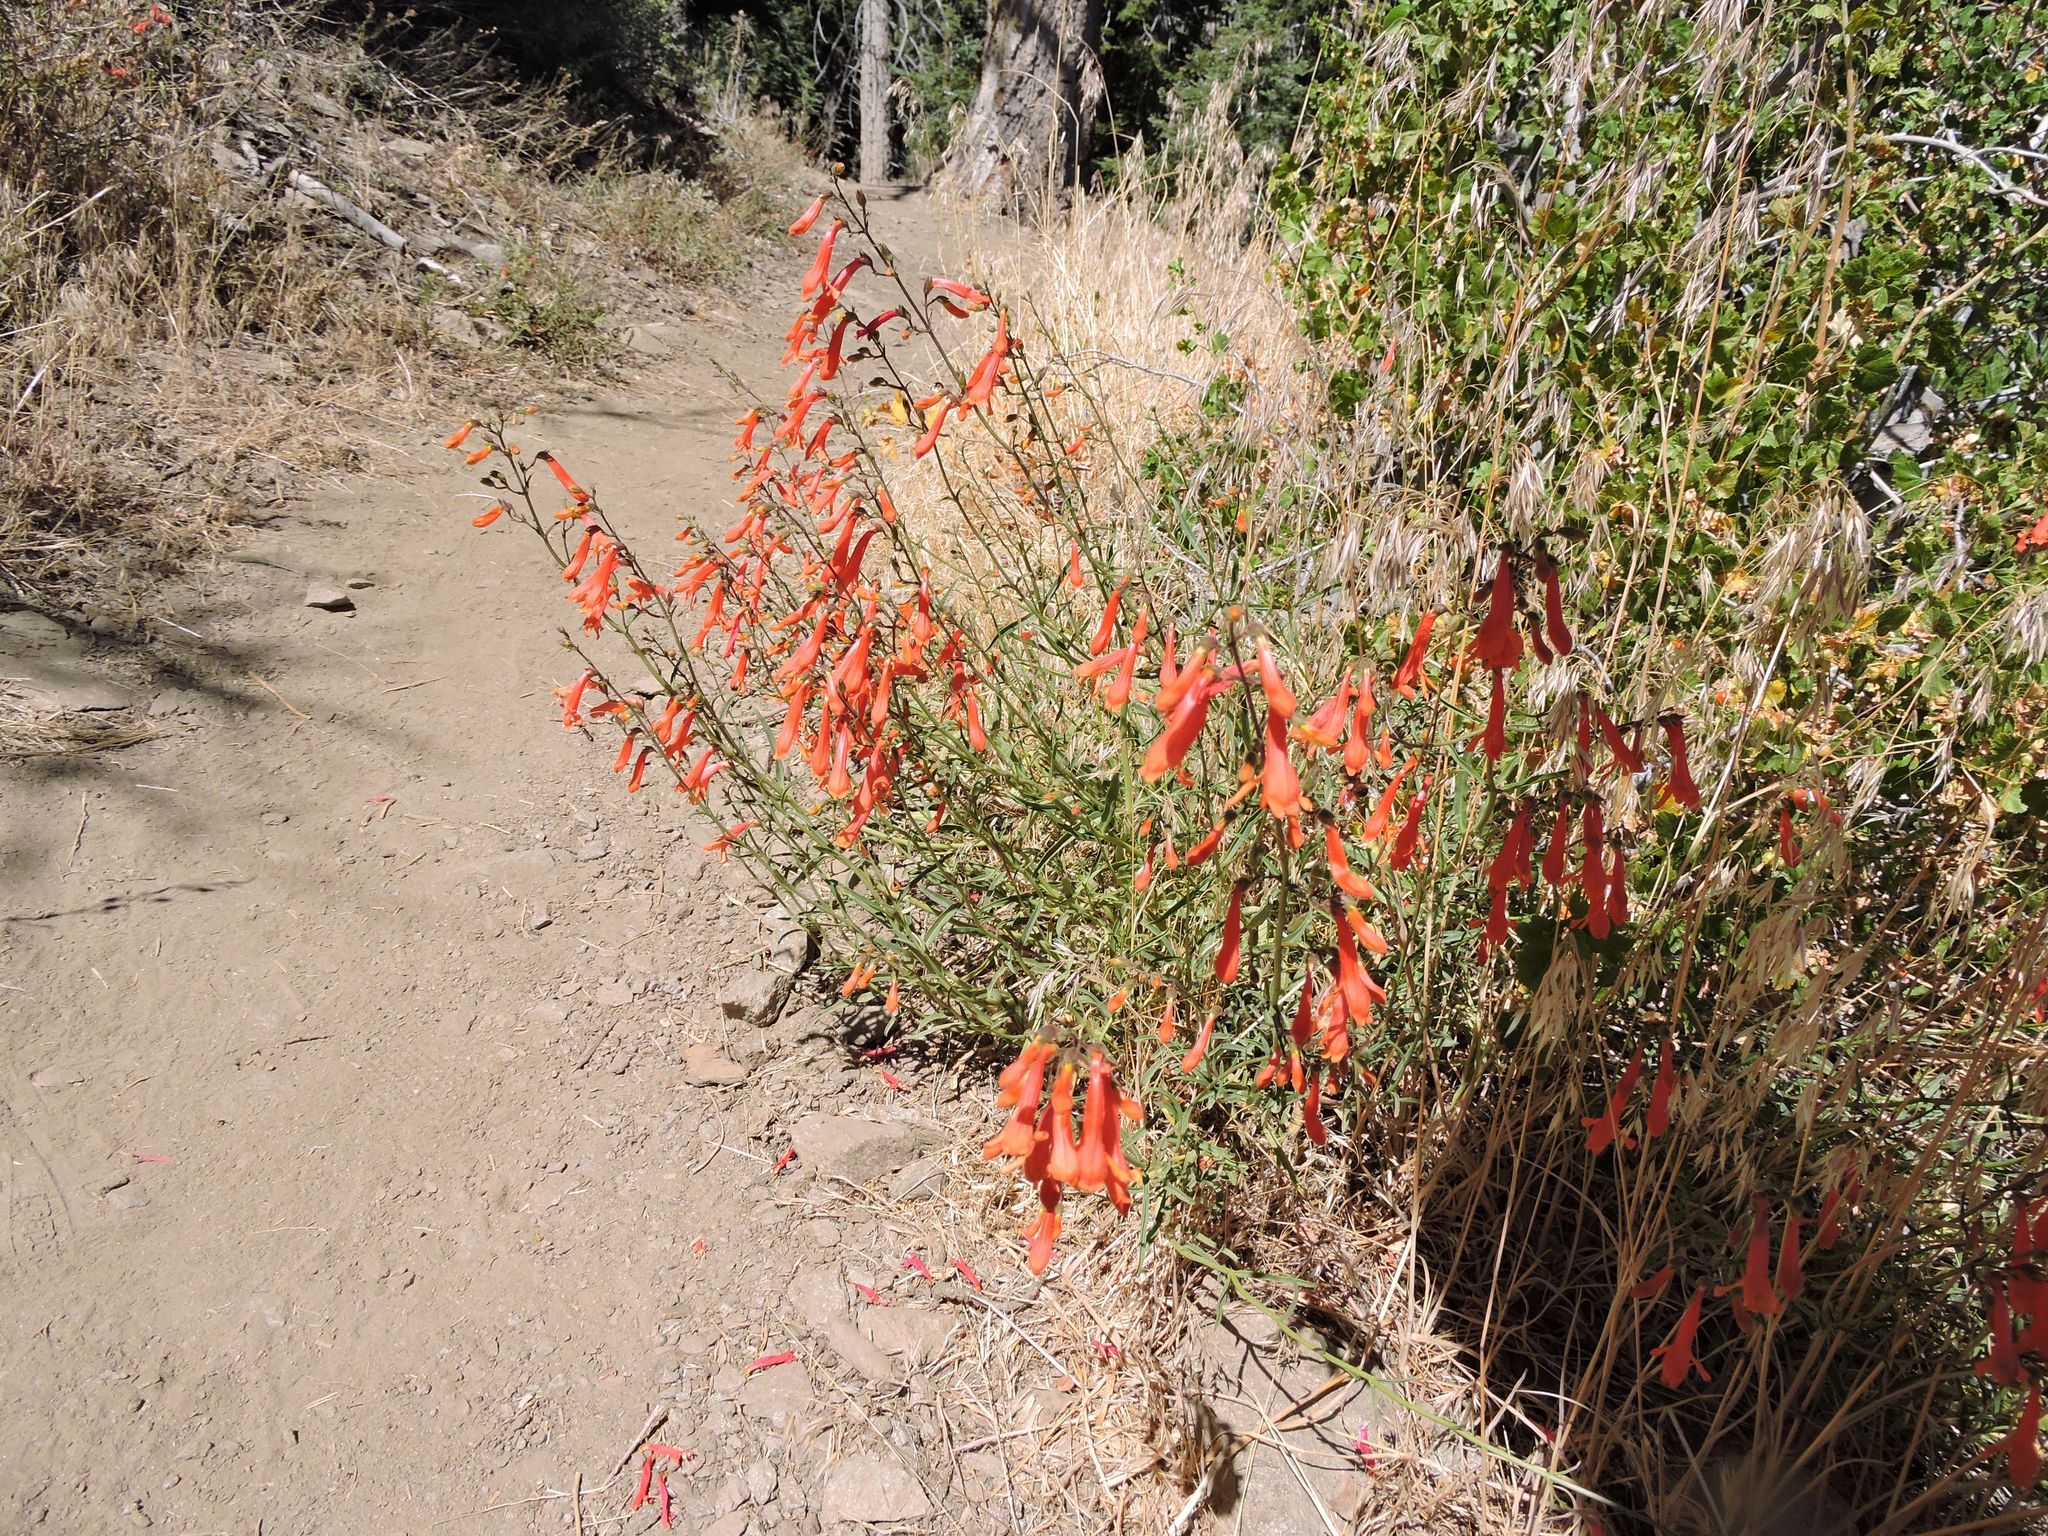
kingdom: Plantae
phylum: Tracheophyta
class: Magnoliopsida
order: Lamiales
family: Plantaginaceae
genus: Penstemon
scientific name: Penstemon rostriflorus
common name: Bridges's penstemon
